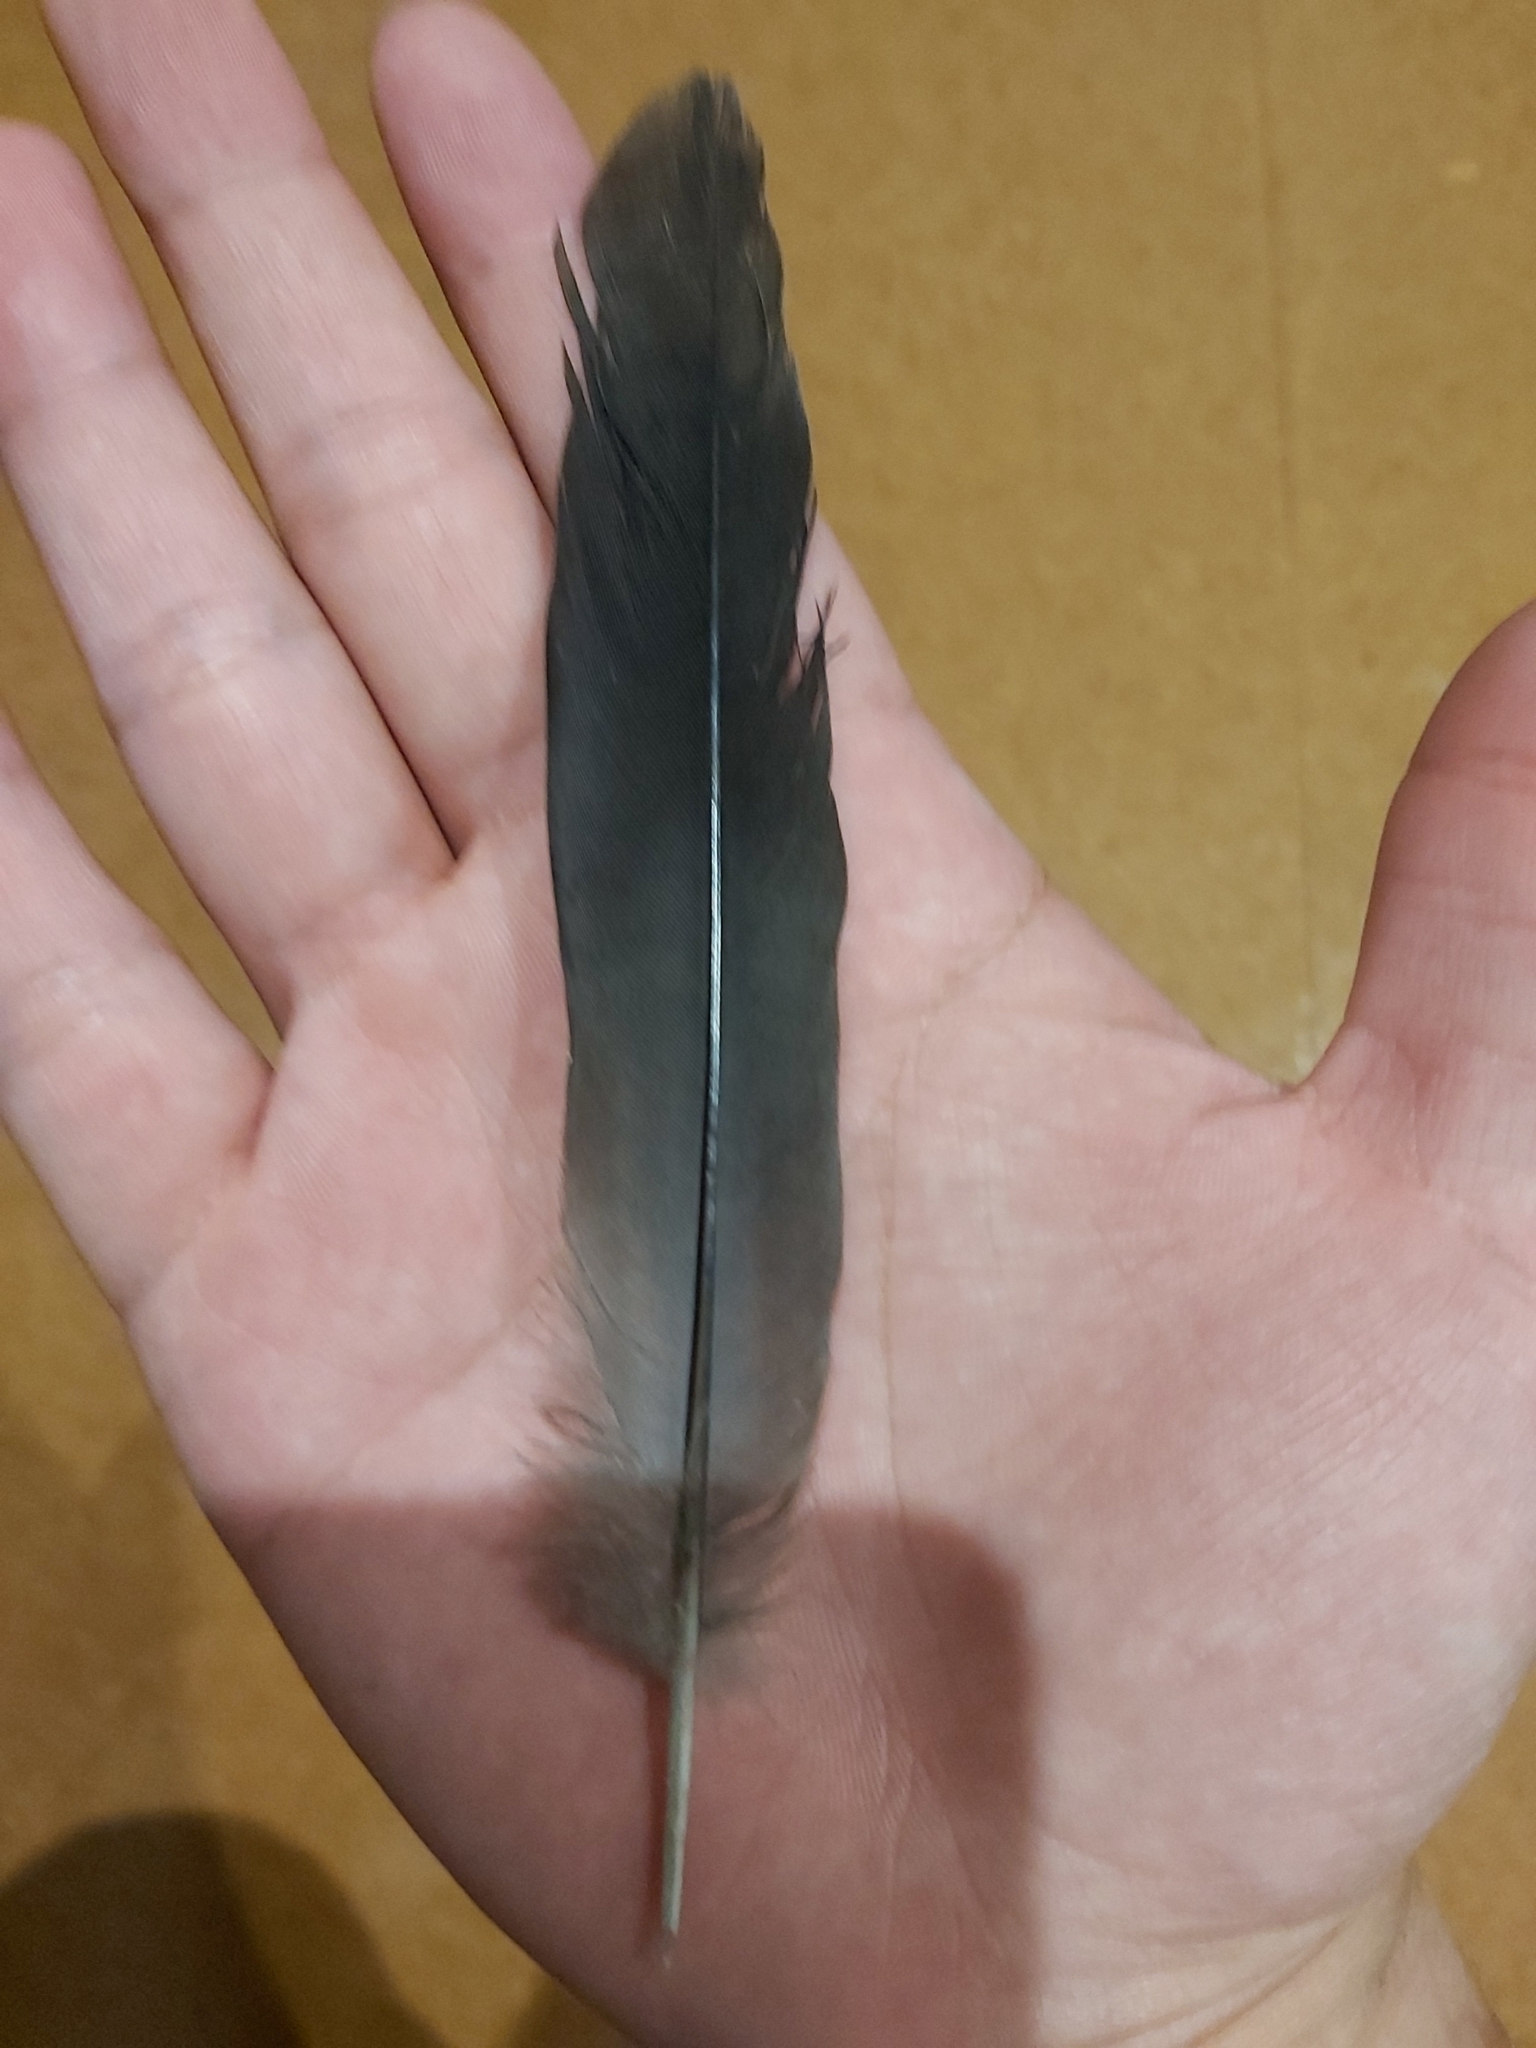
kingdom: Animalia
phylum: Chordata
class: Aves
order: Columbiformes
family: Columbidae
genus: Columba
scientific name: Columba leucomela
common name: White-headed pigeon
